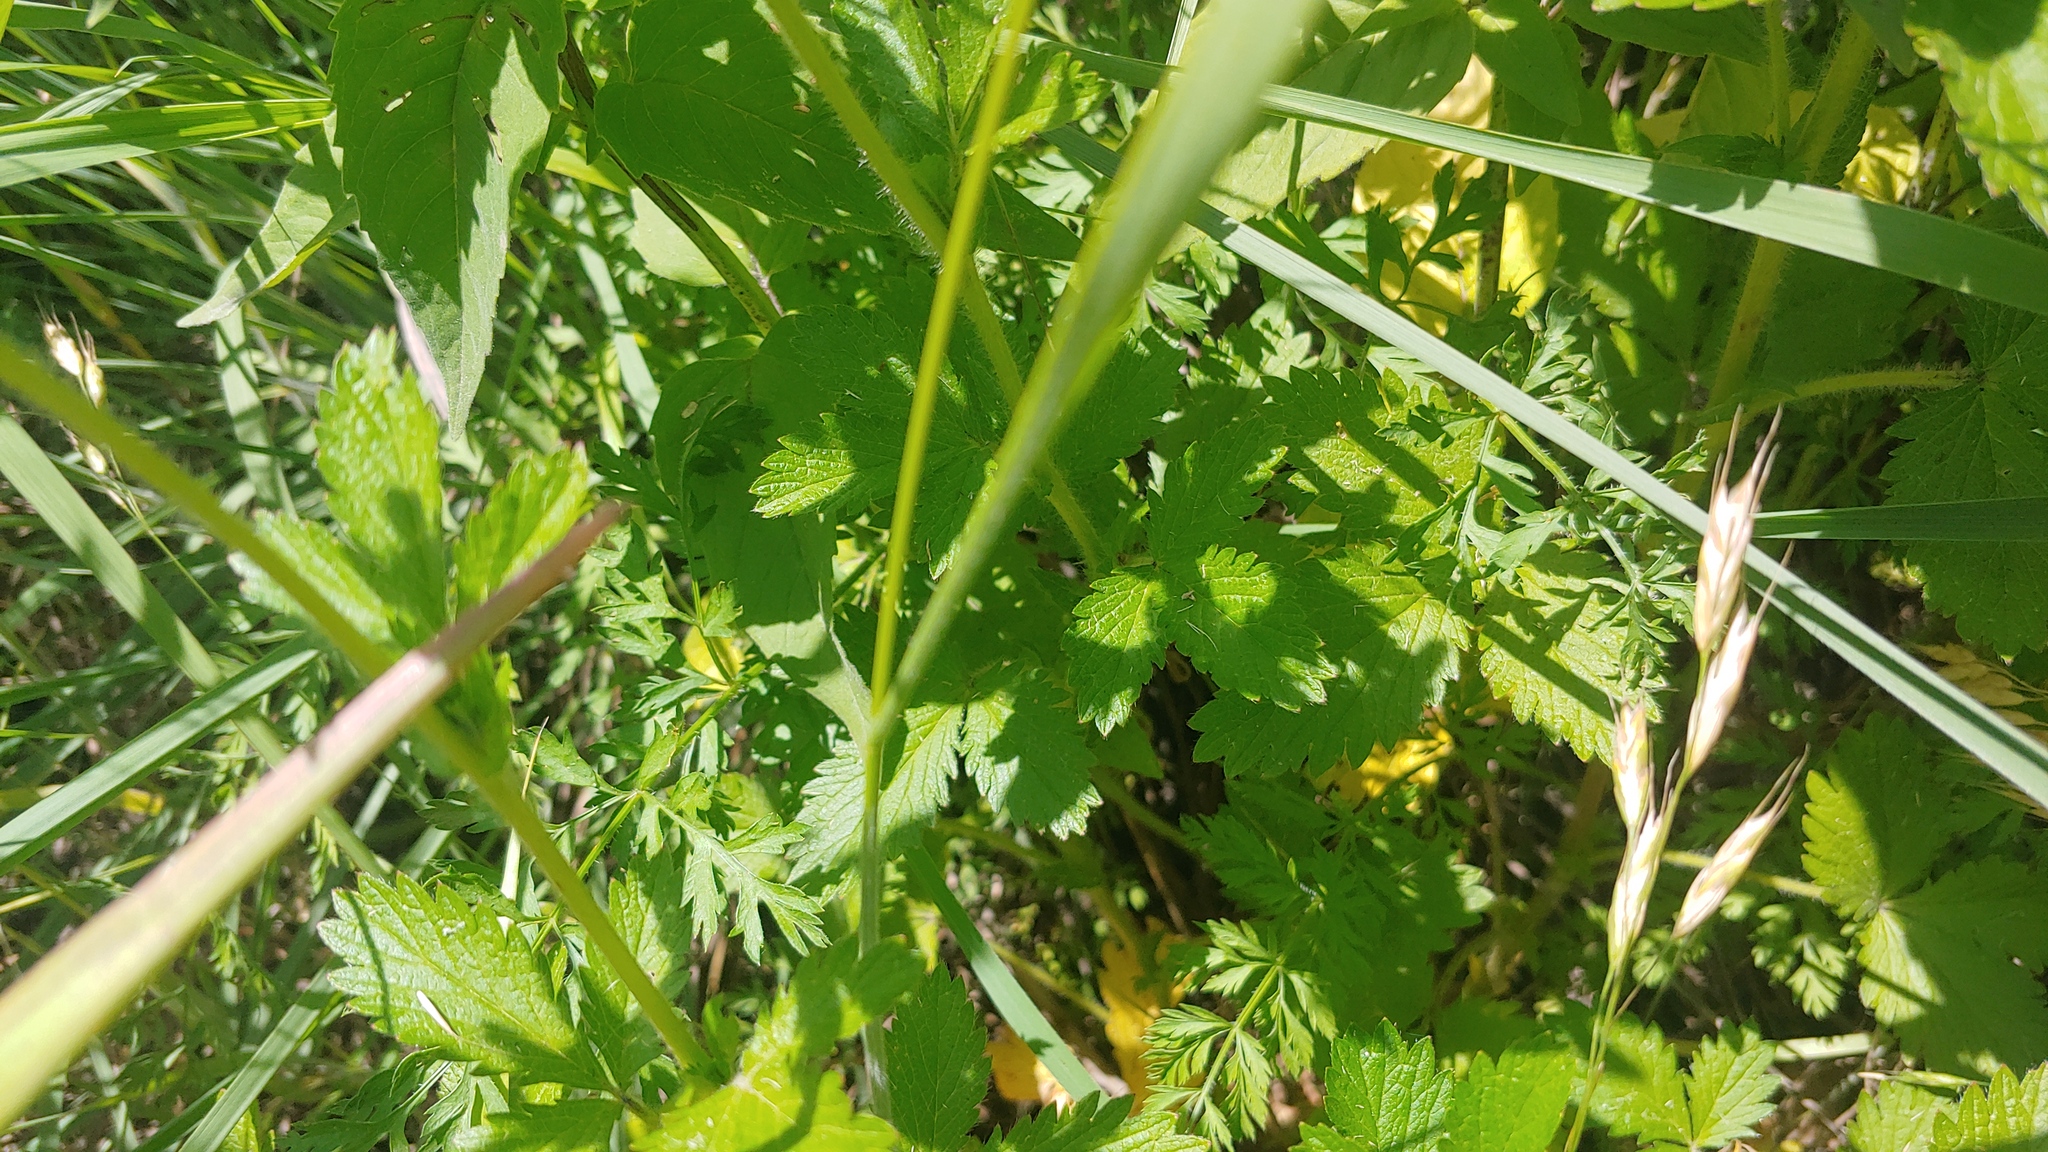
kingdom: Plantae
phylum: Tracheophyta
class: Magnoliopsida
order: Rosales
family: Rosaceae
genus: Potentilla
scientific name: Potentilla norvegica
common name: Ternate-leaved cinquefoil
